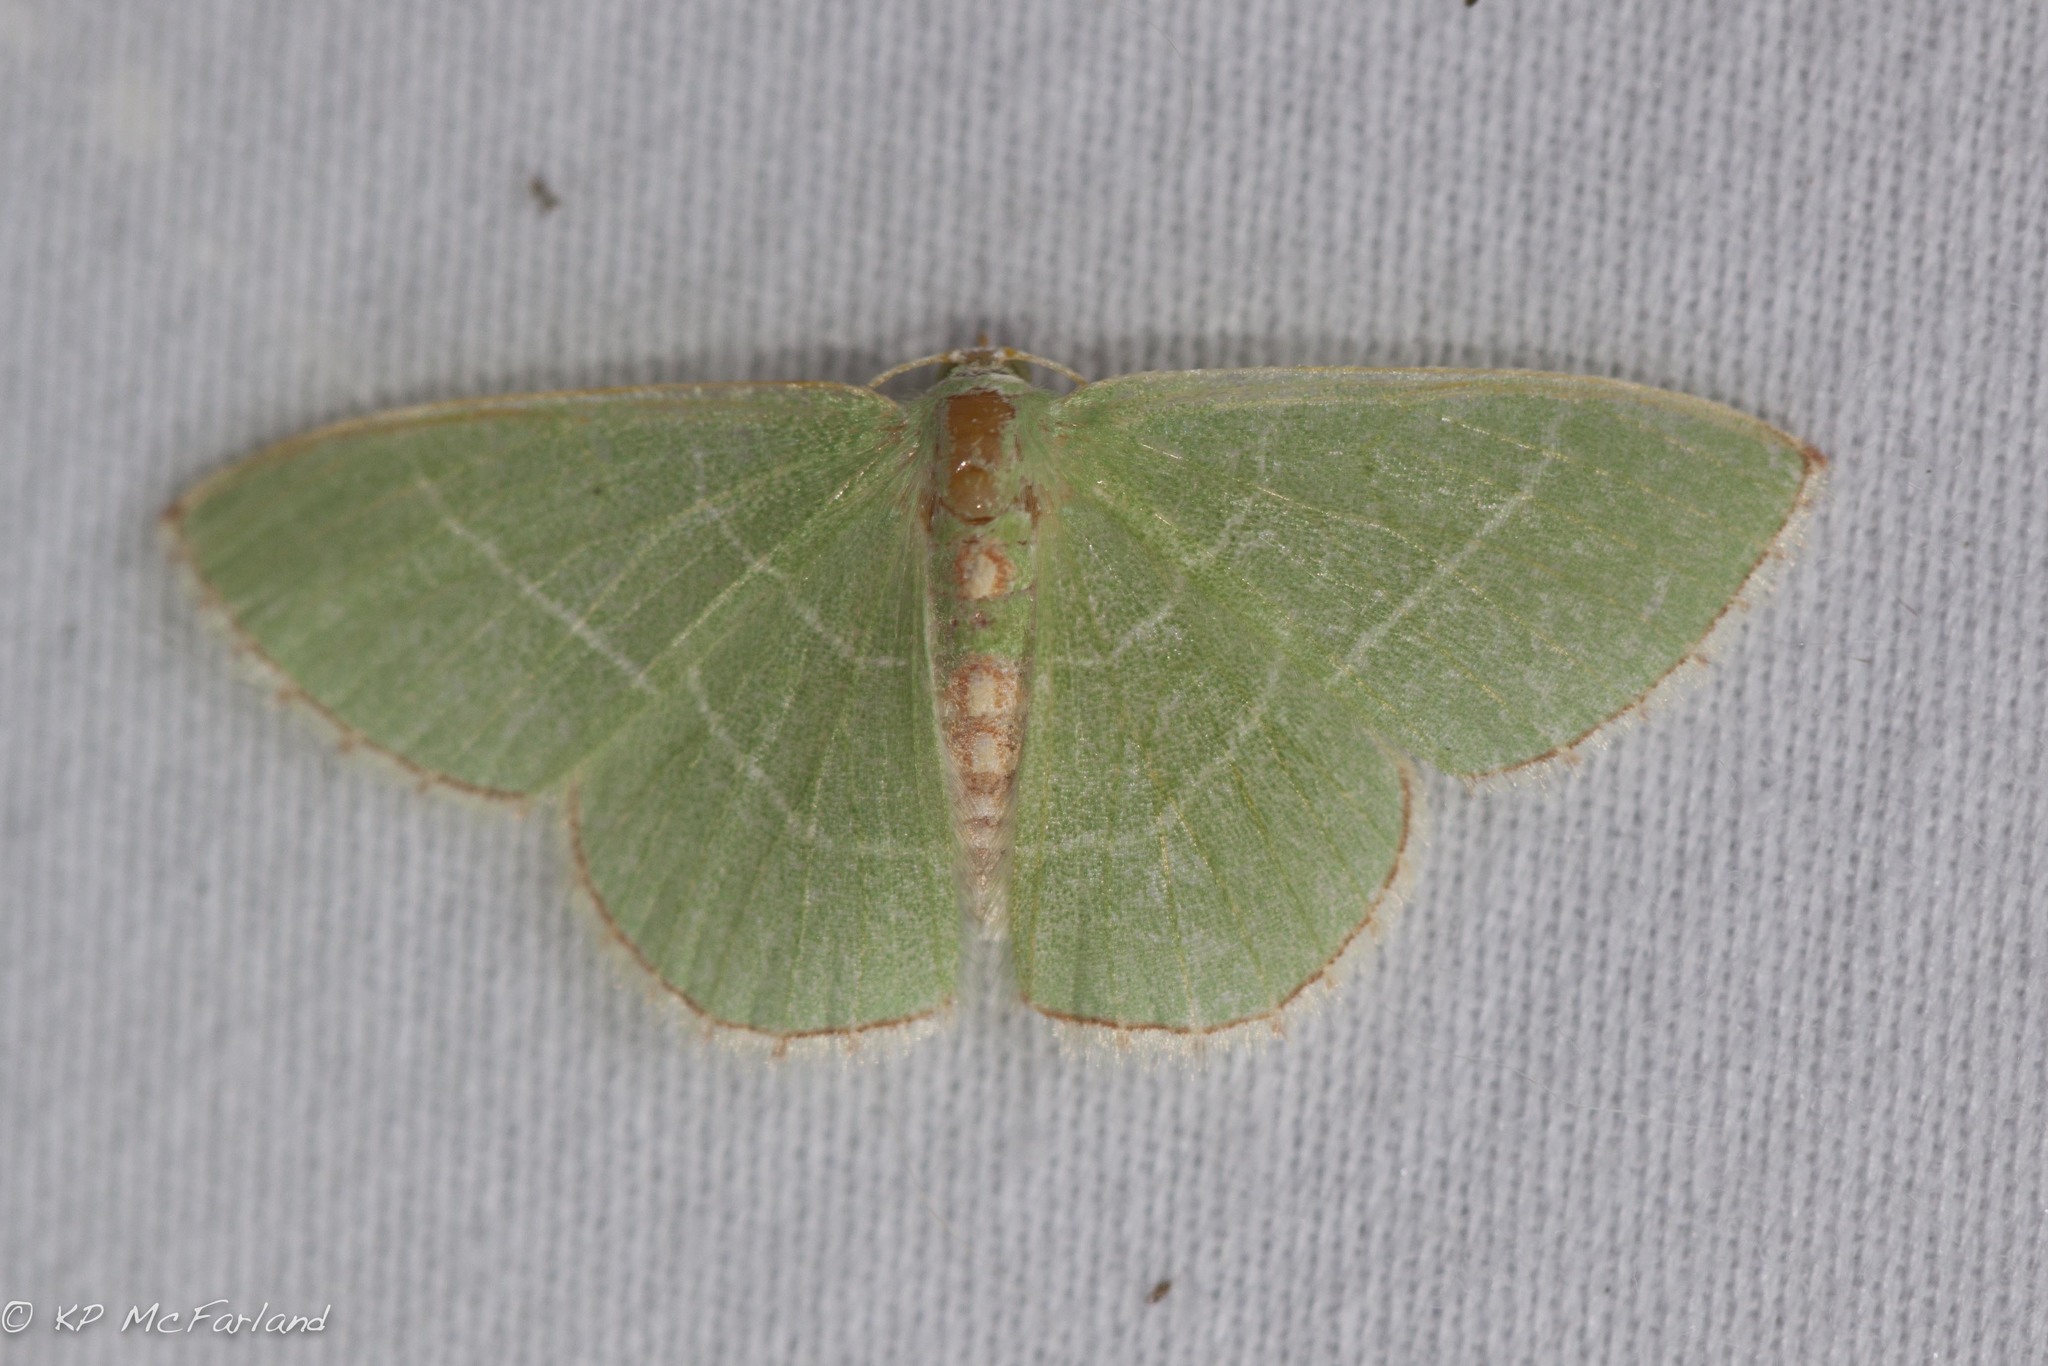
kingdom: Animalia
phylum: Arthropoda
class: Insecta
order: Lepidoptera
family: Geometridae
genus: Nemoria
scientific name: Nemoria bistriaria
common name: Red-fringed emerald
